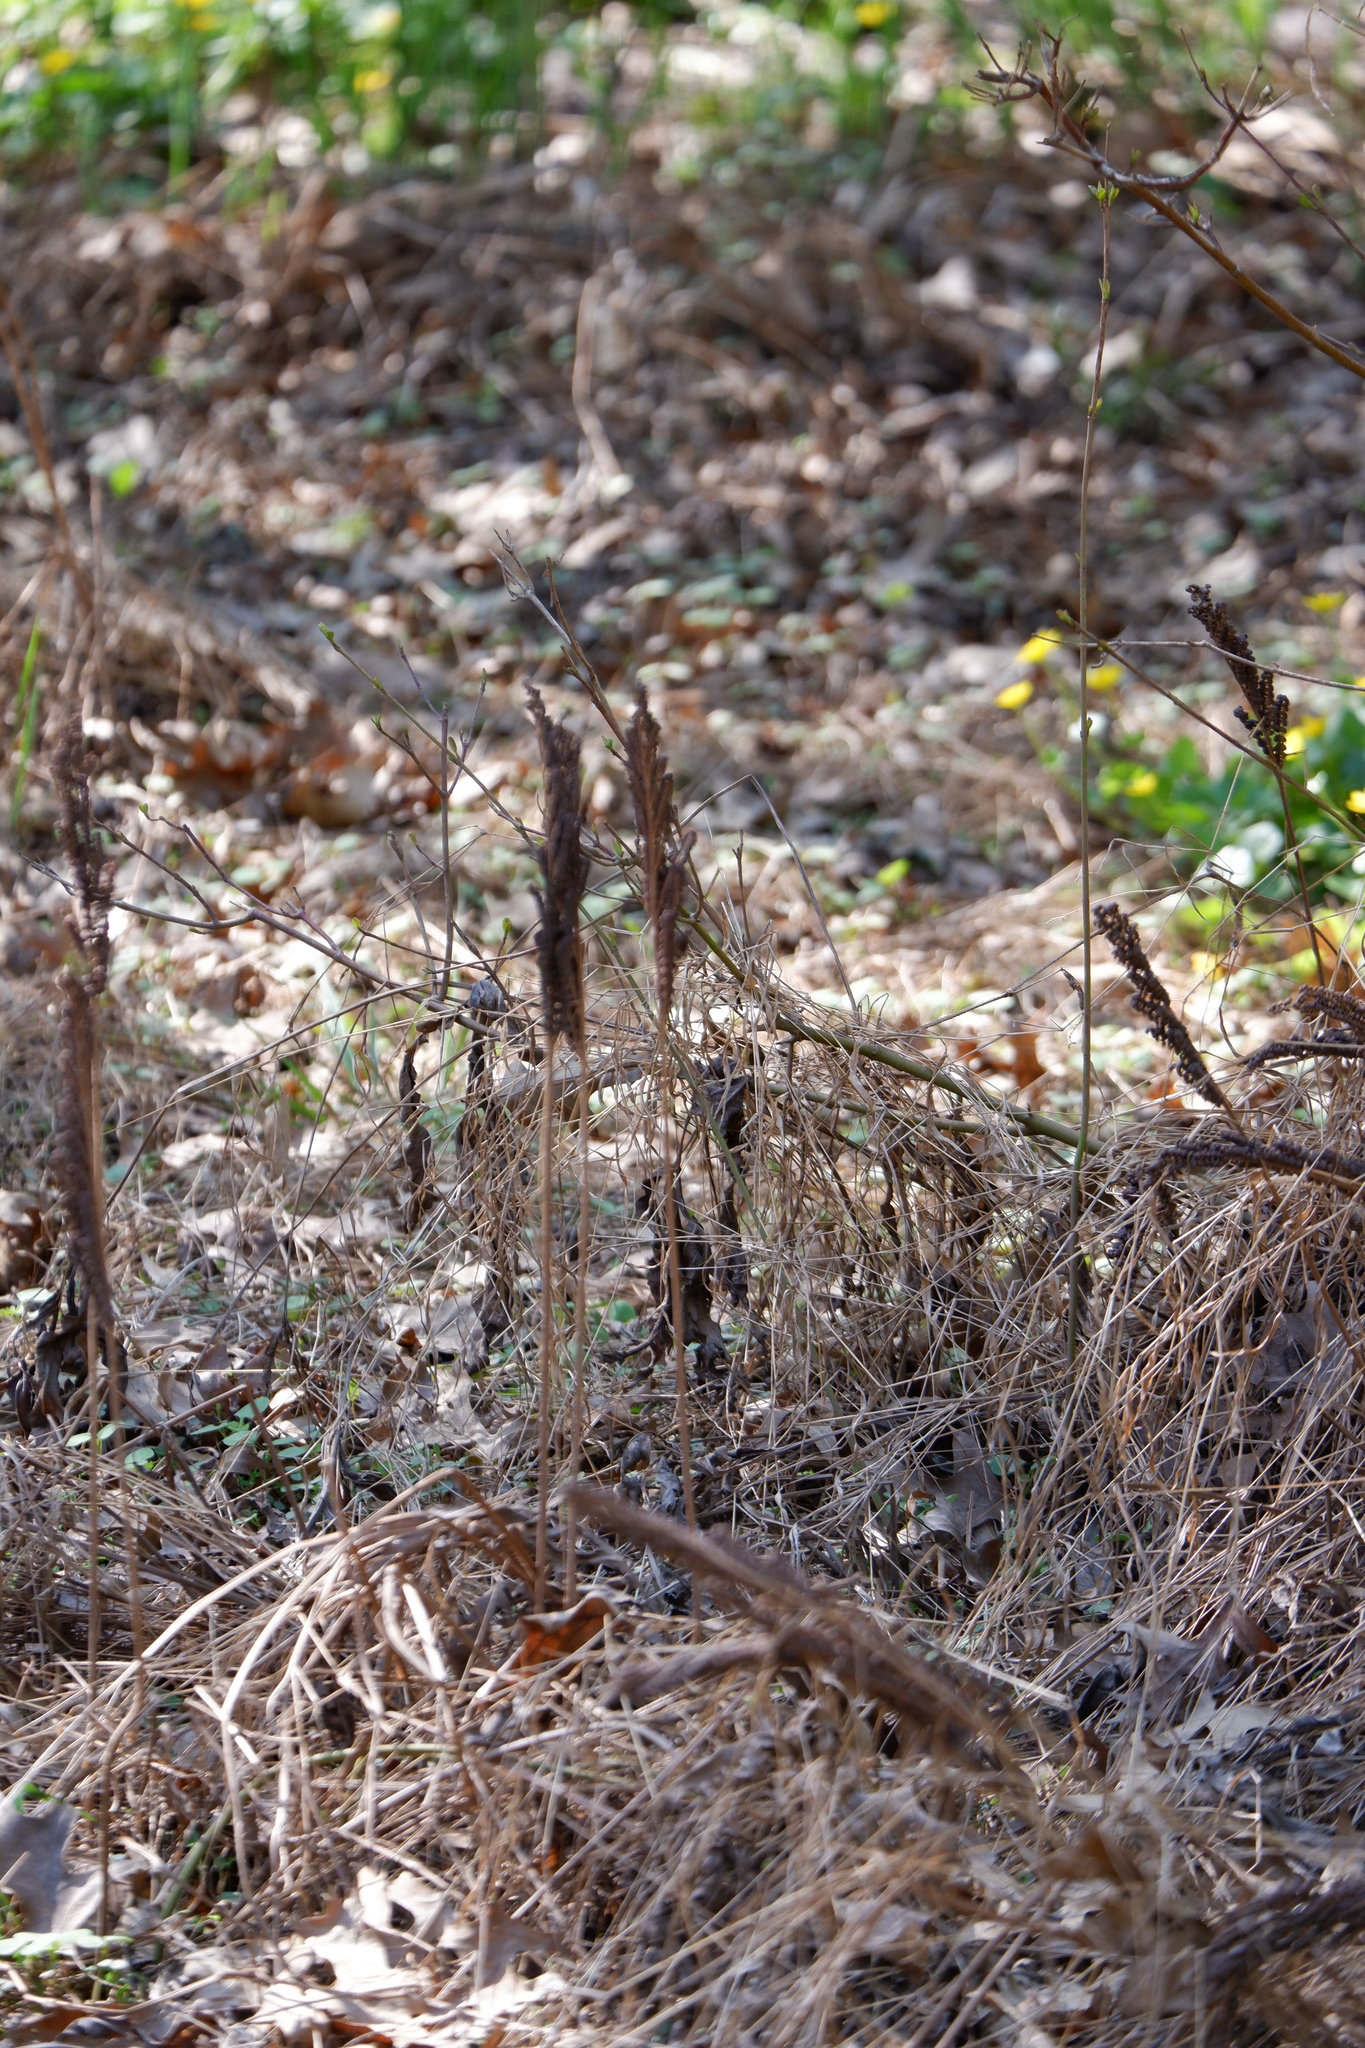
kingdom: Plantae
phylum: Tracheophyta
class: Polypodiopsida
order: Polypodiales
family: Onocleaceae
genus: Onoclea
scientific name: Onoclea sensibilis
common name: Sensitive fern
